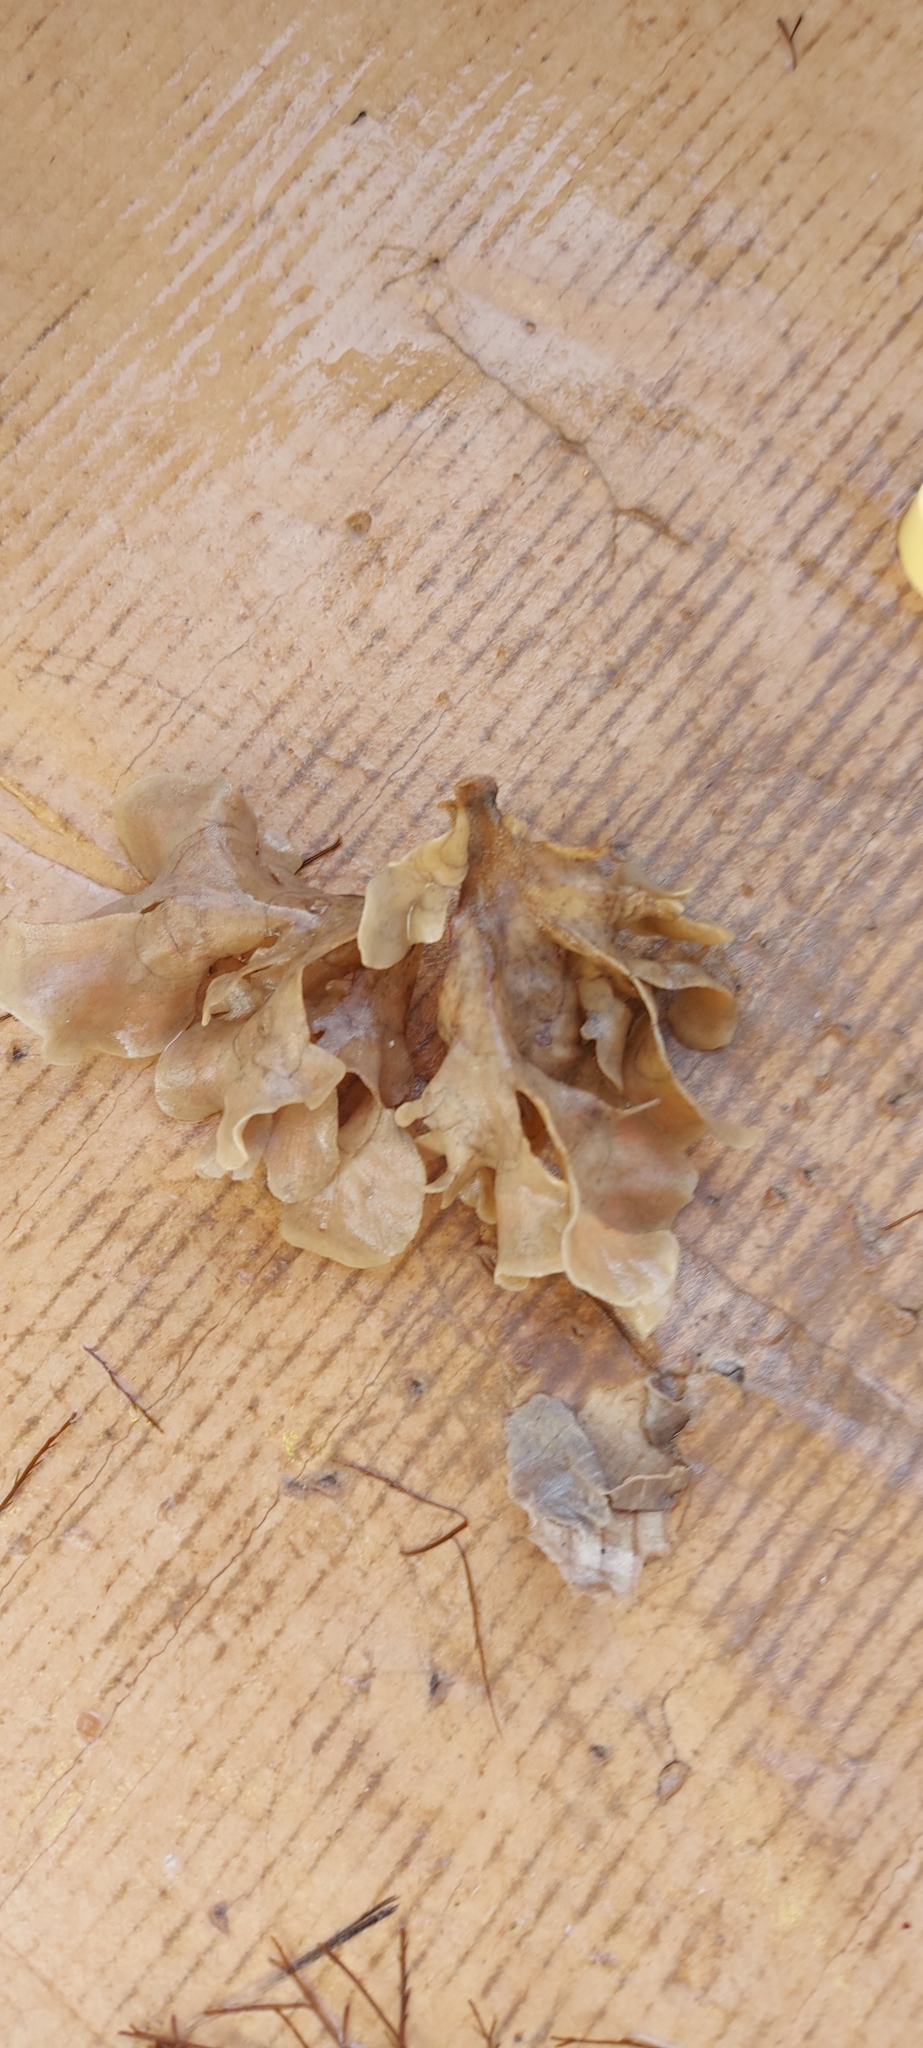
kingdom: Animalia
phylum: Bryozoa
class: Gymnolaemata
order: Cheilostomatida
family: Flustridae
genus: Flustra
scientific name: Flustra foliacea
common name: Hornwrack
